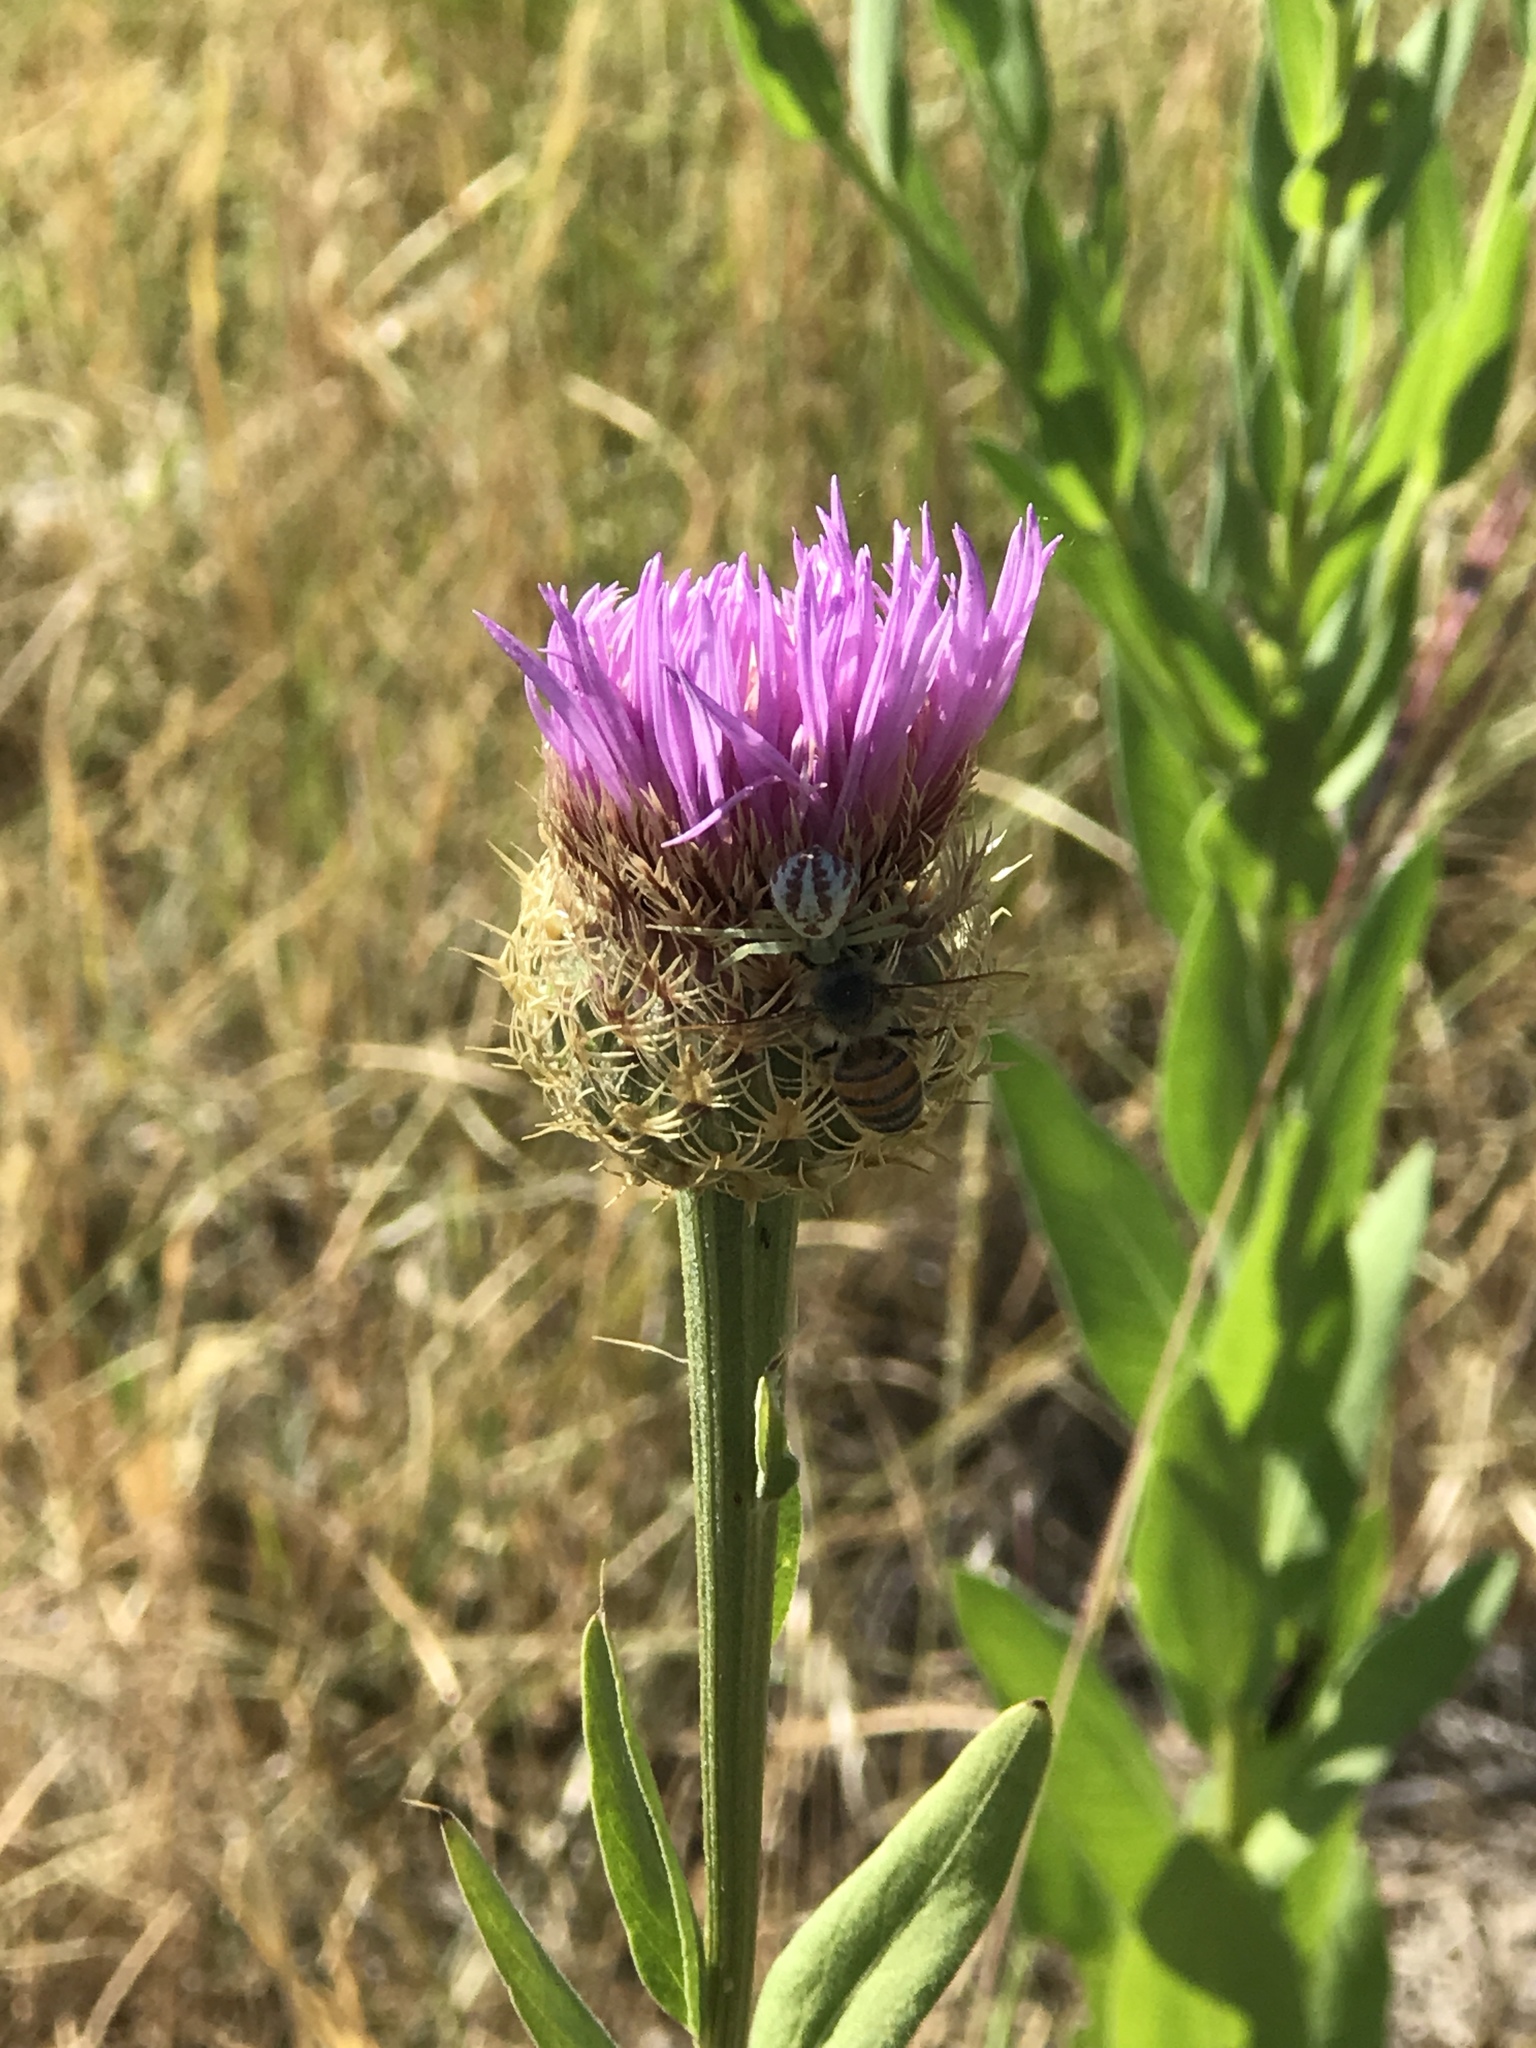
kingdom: Animalia
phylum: Arthropoda
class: Insecta
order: Hymenoptera
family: Apidae
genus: Apis
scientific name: Apis mellifera
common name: Honey bee
